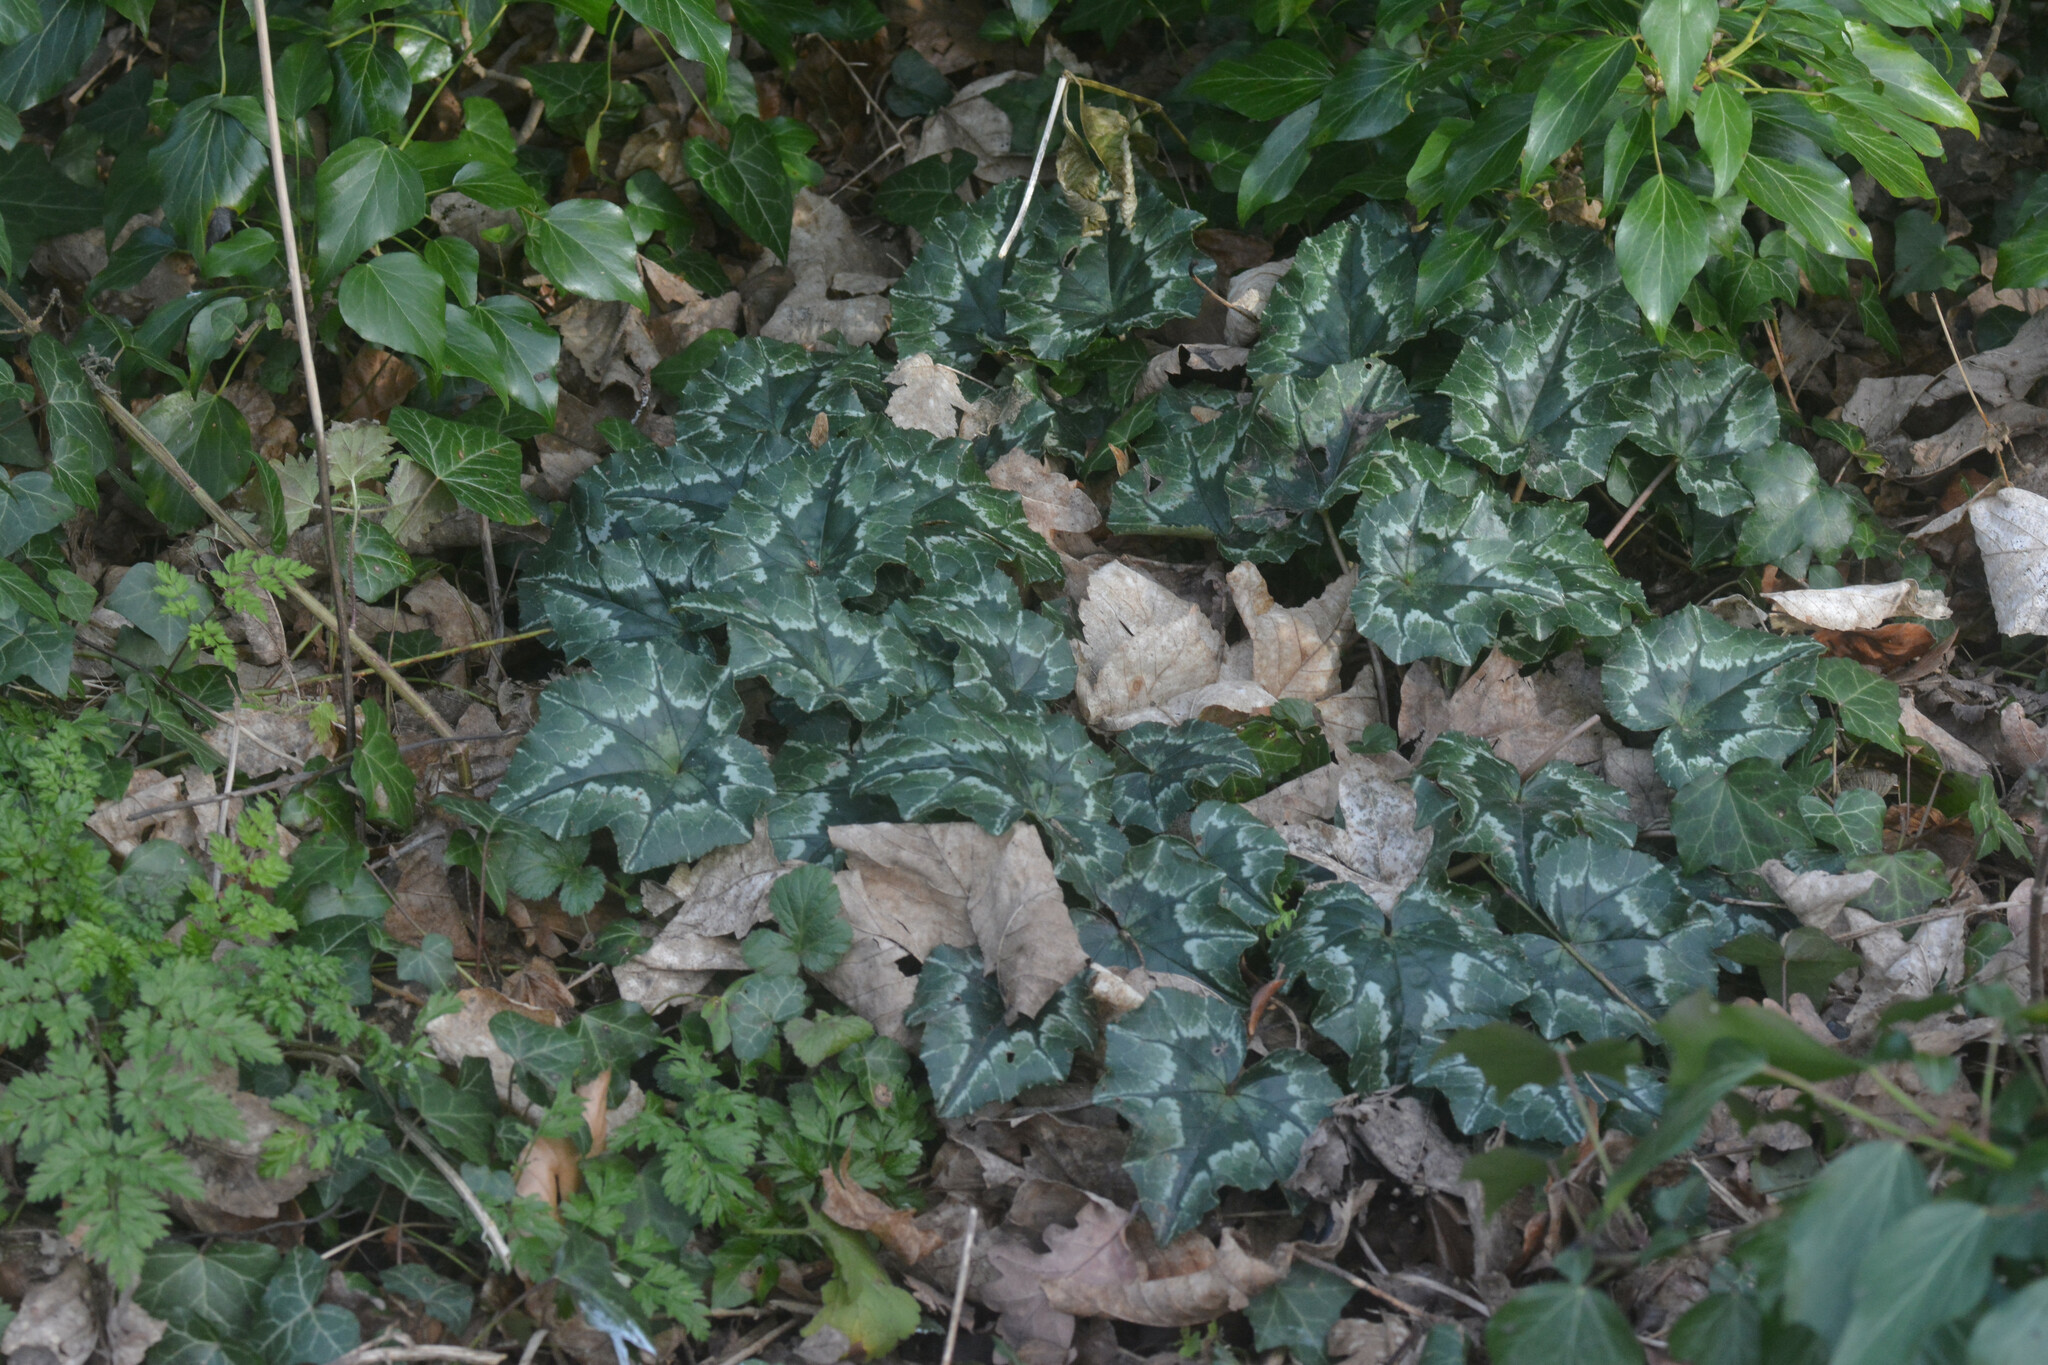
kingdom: Plantae
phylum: Tracheophyta
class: Magnoliopsida
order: Ericales
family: Primulaceae
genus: Cyclamen
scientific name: Cyclamen hederifolium
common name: Sowbread
